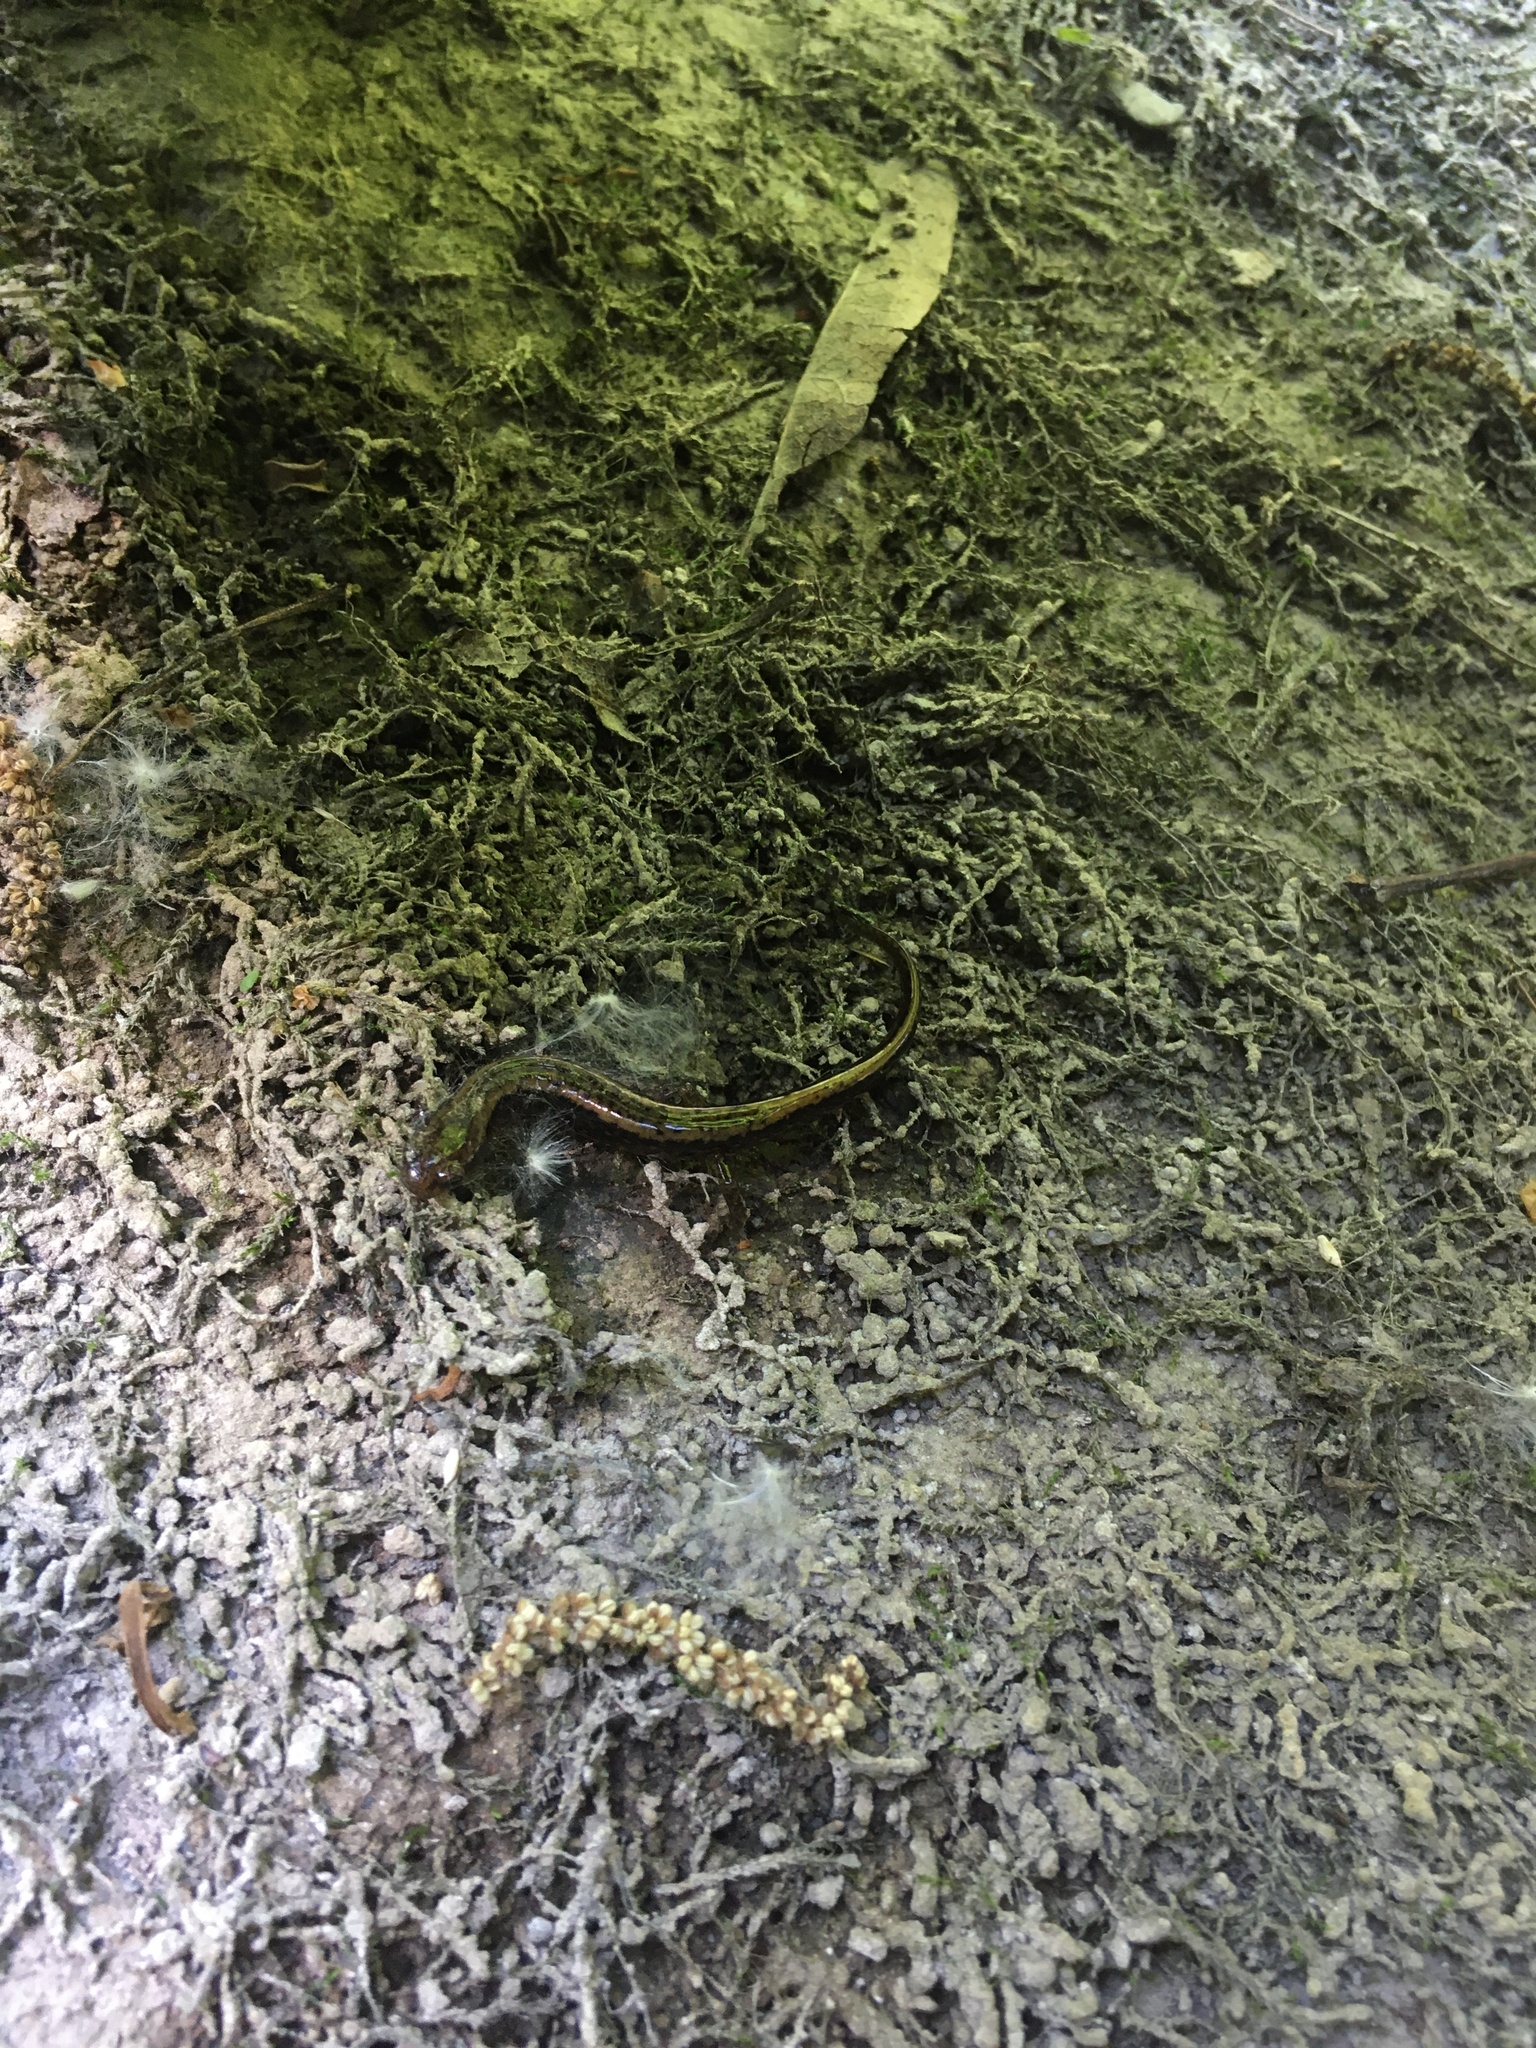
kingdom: Animalia
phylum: Chordata
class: Amphibia
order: Caudata
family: Plethodontidae
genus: Eurycea
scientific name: Eurycea bislineata
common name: Northern two-lined salamander
